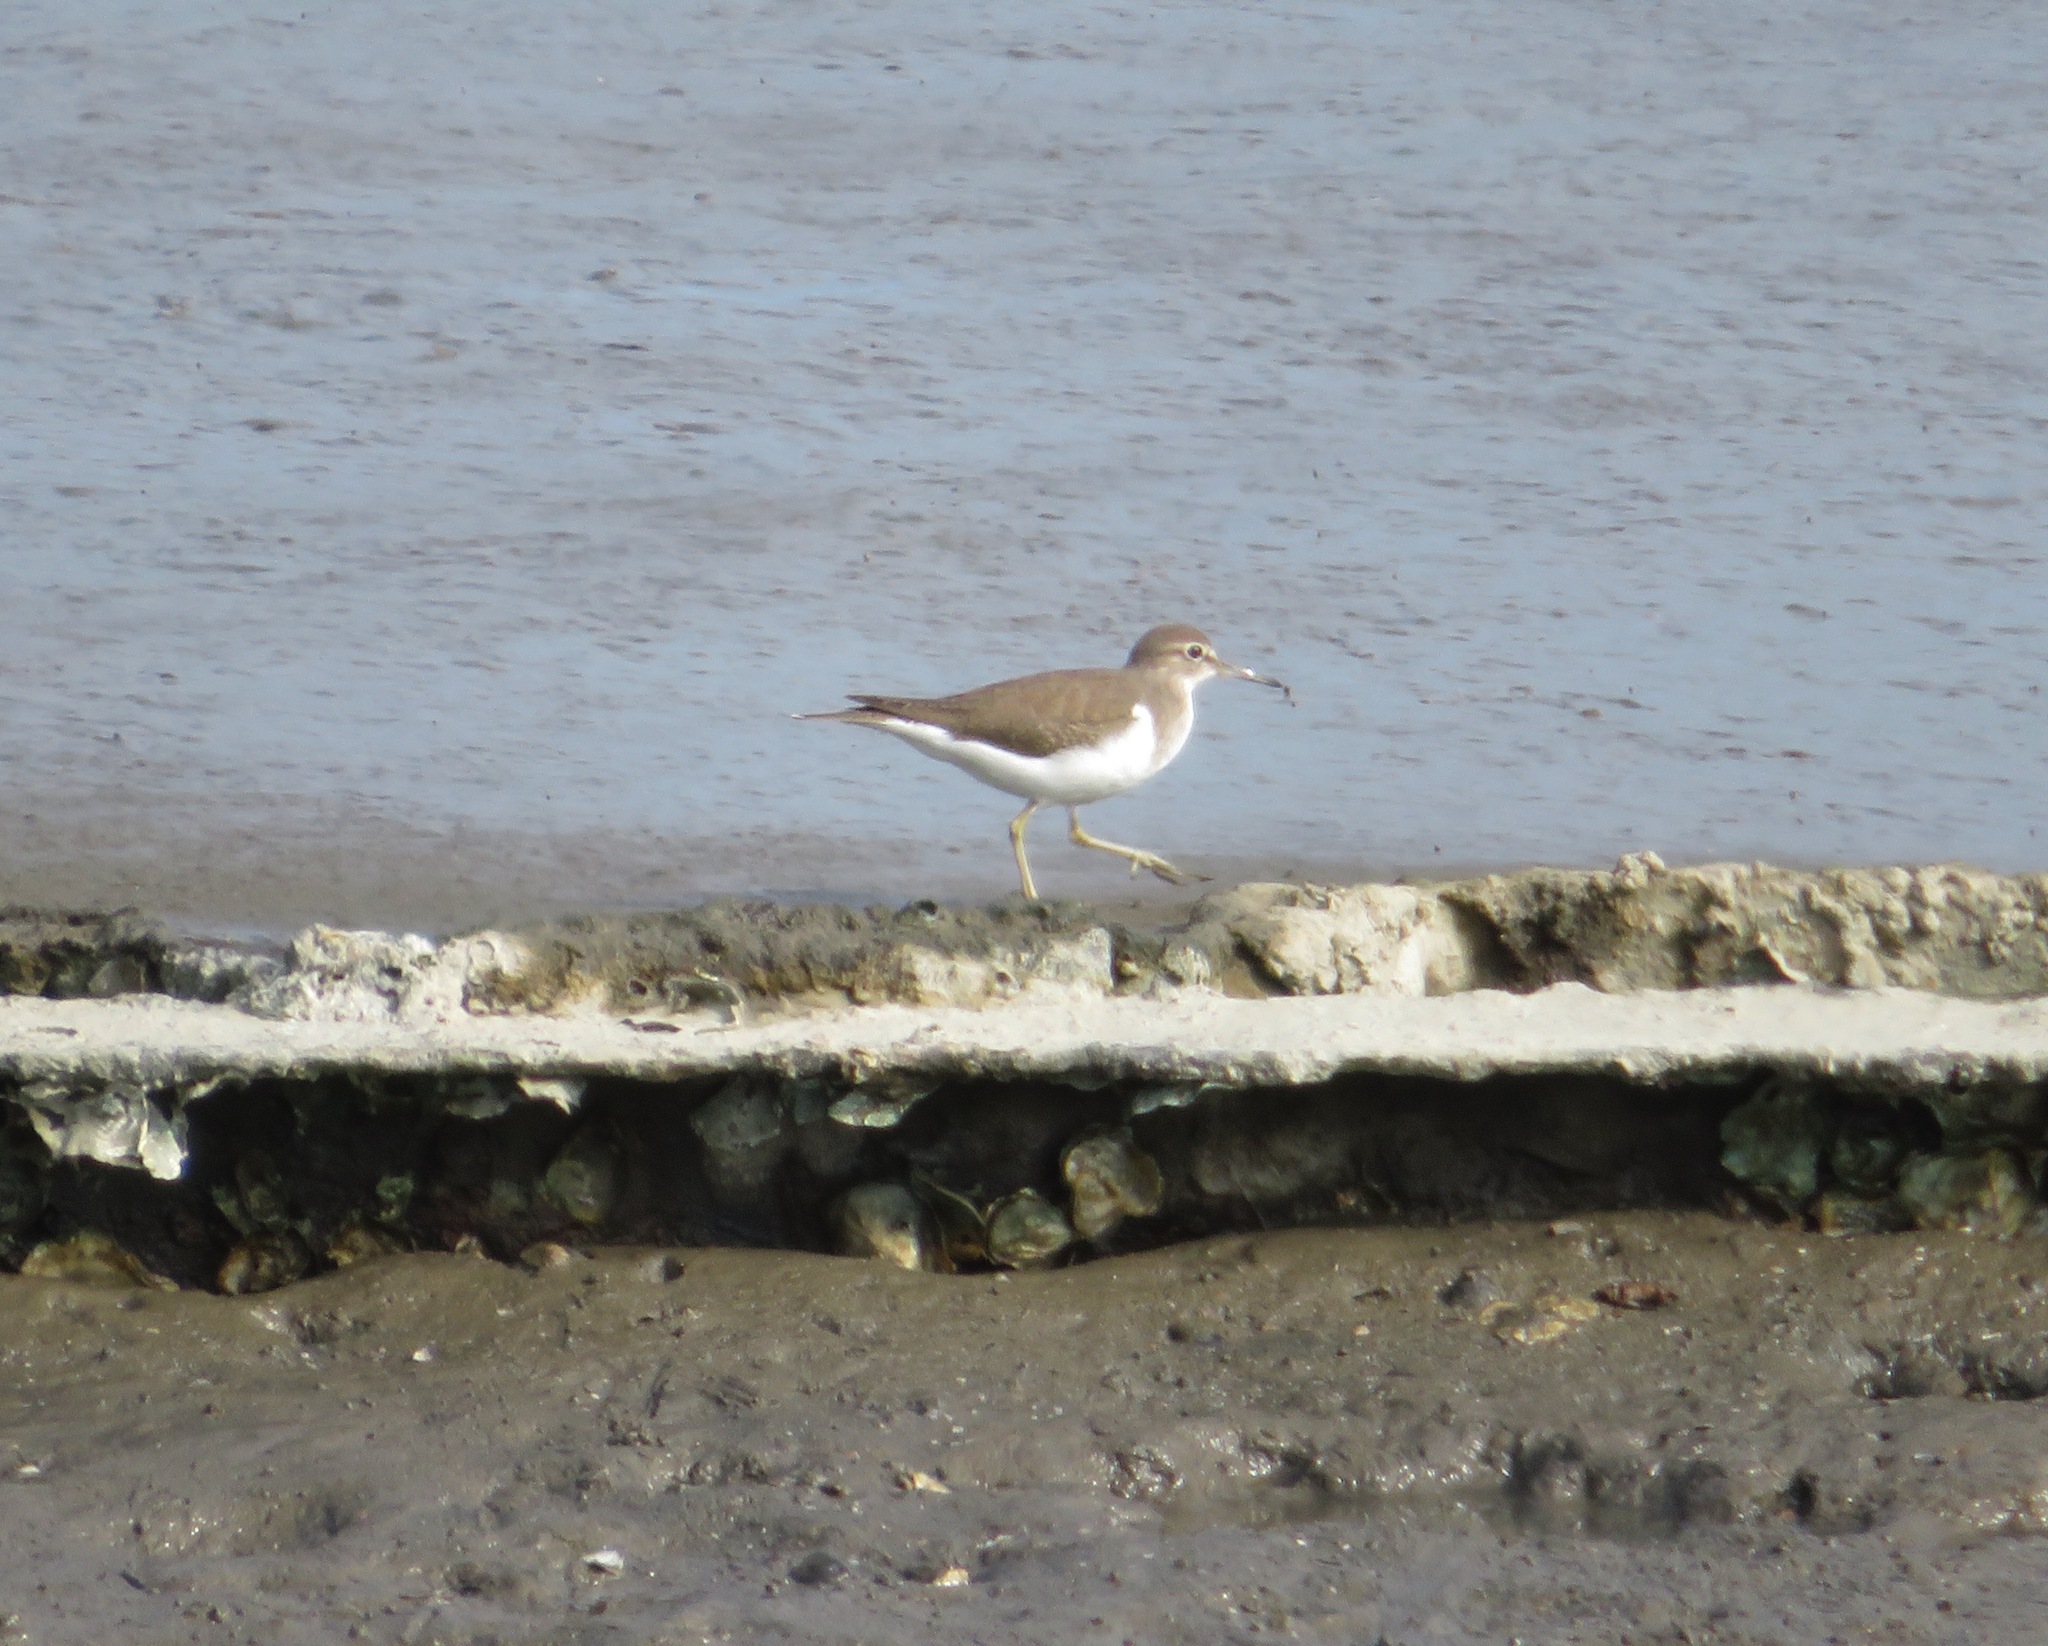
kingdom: Animalia
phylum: Chordata
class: Aves
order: Charadriiformes
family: Scolopacidae
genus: Actitis
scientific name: Actitis hypoleucos
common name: Common sandpiper
